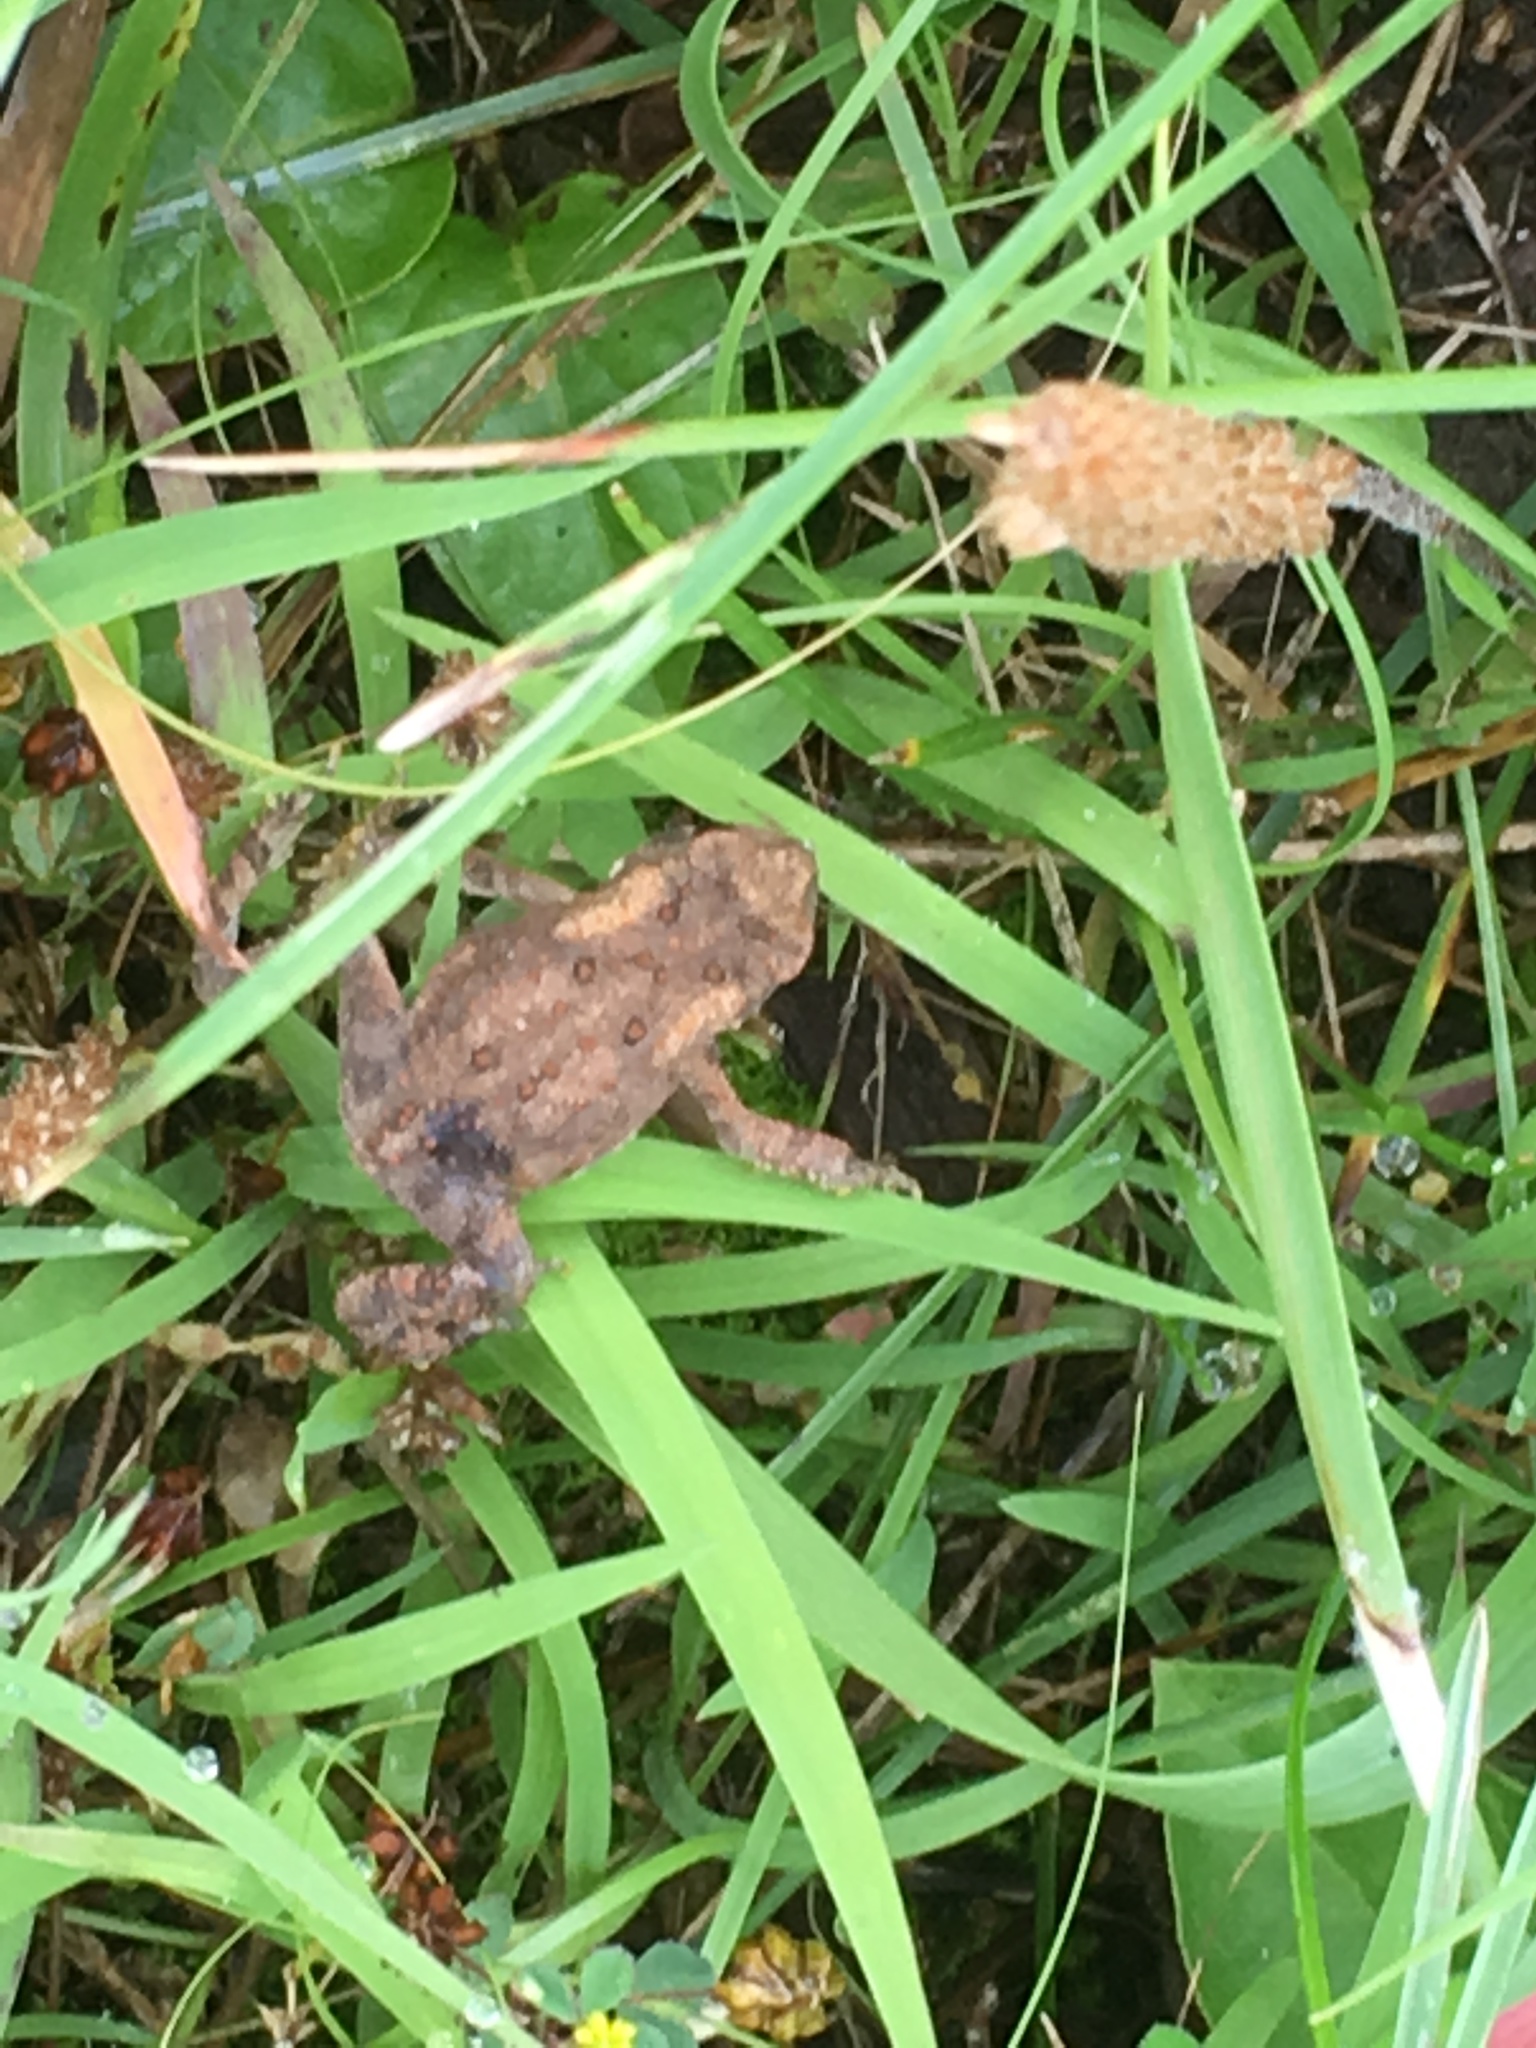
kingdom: Animalia
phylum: Chordata
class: Amphibia
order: Anura
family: Bufonidae
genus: Anaxyrus
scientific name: Anaxyrus americanus
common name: American toad
